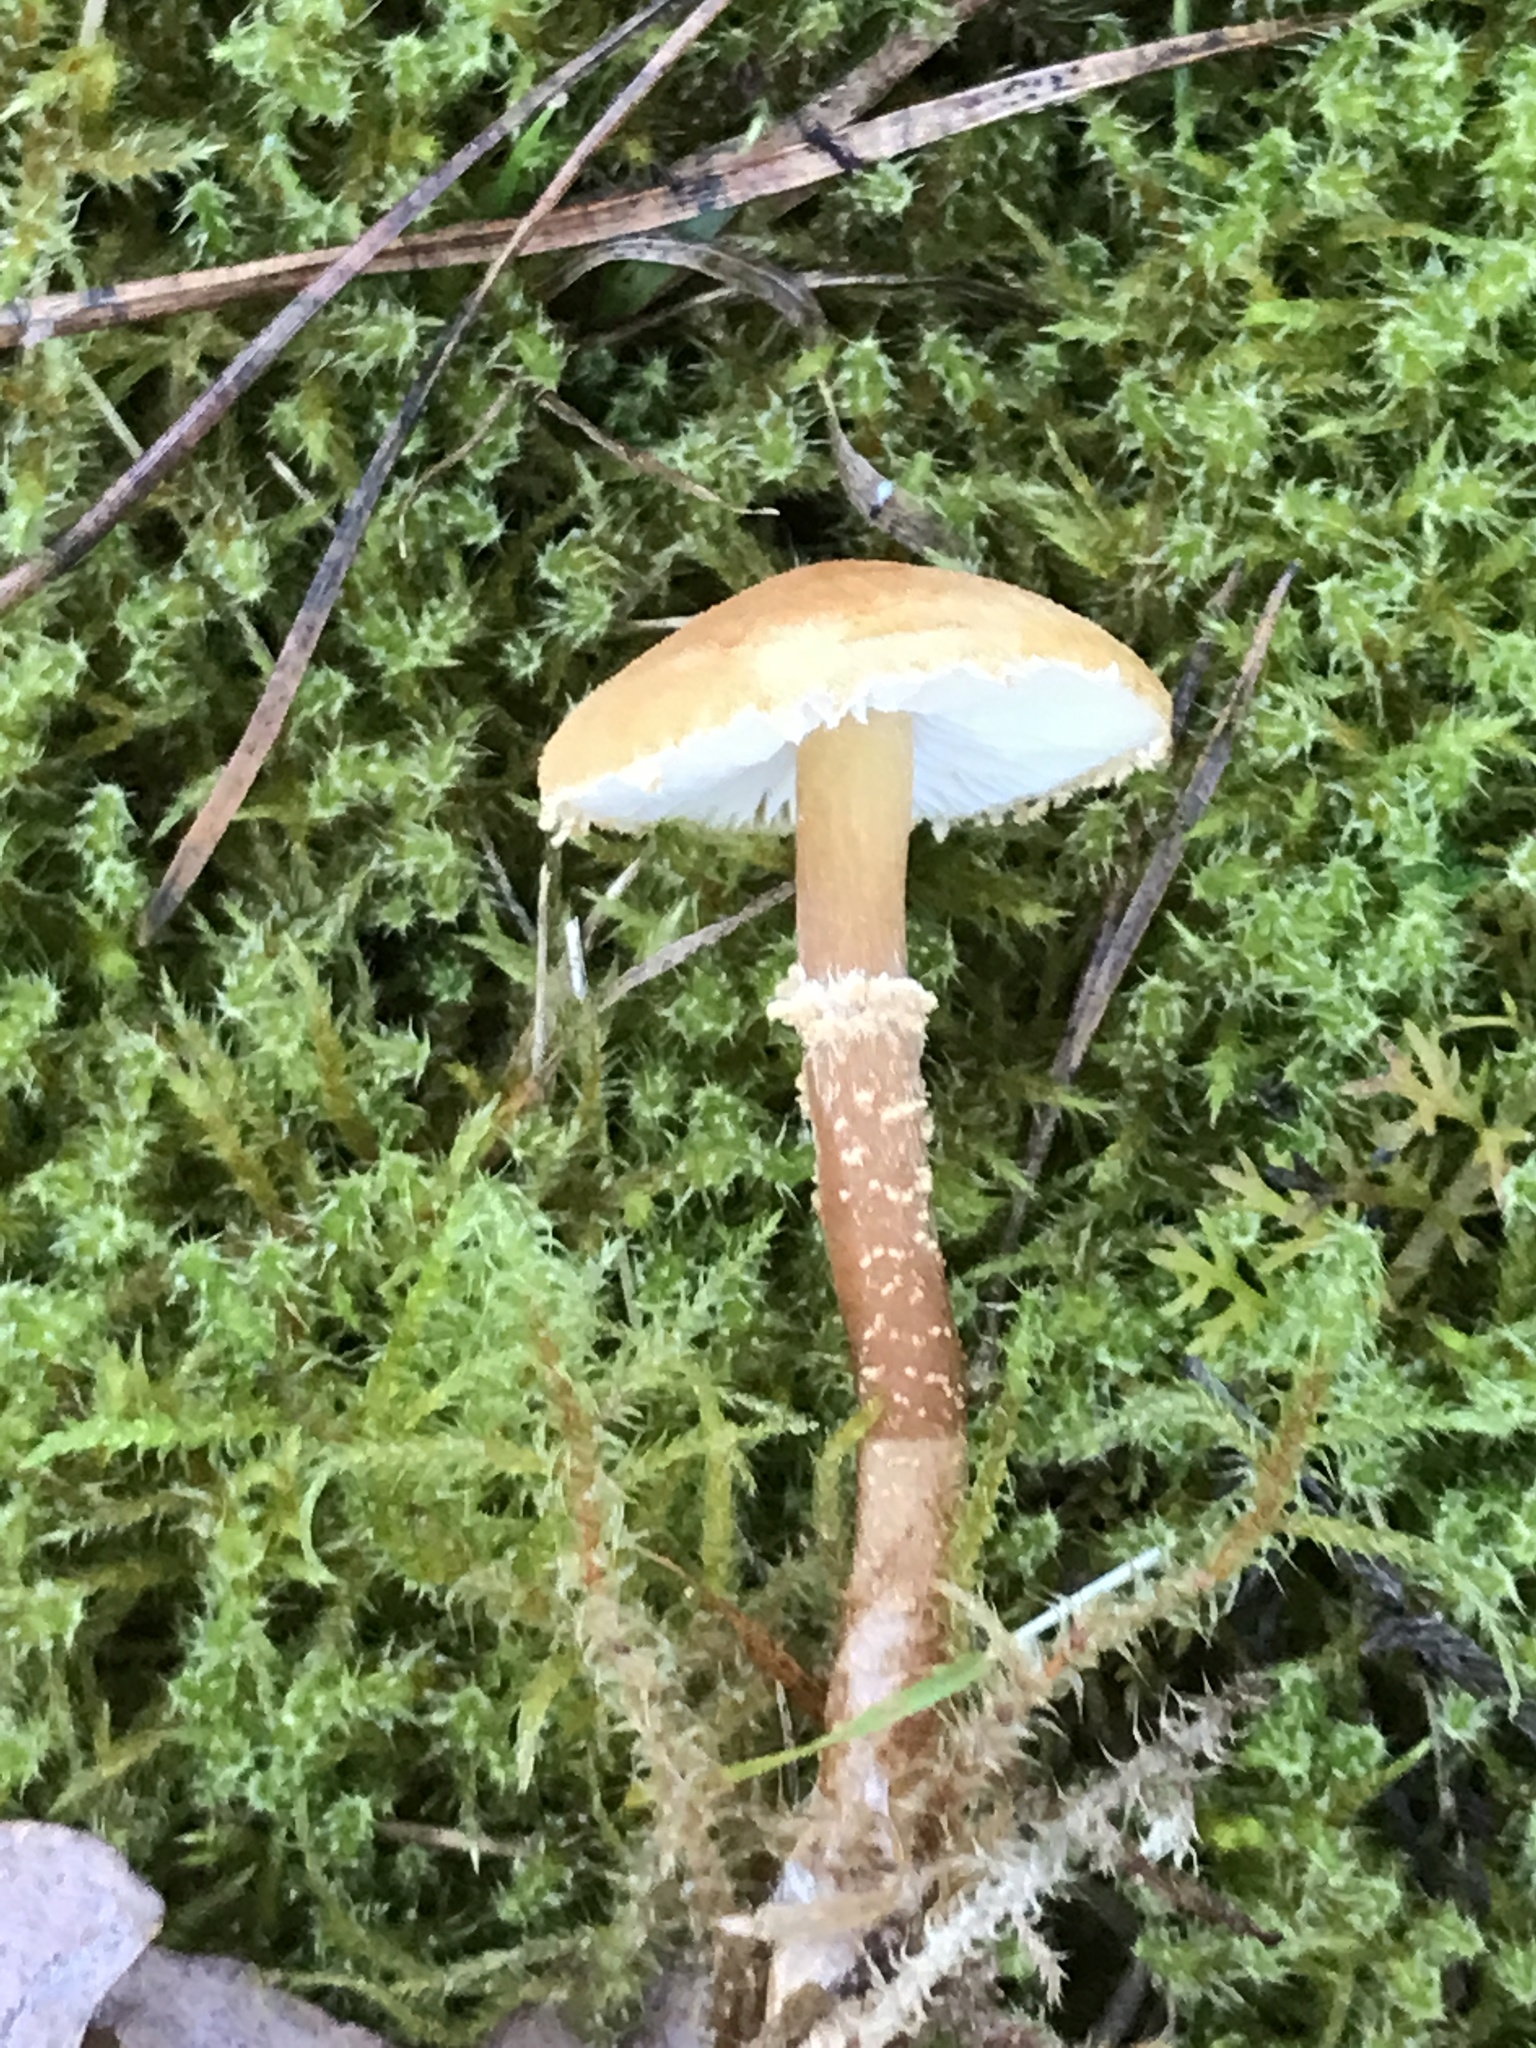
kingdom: Fungi
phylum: Basidiomycota
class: Agaricomycetes
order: Agaricales
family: Tricholomataceae
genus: Cystoderma
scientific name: Cystoderma amianthinum
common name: Earthy powdercap
